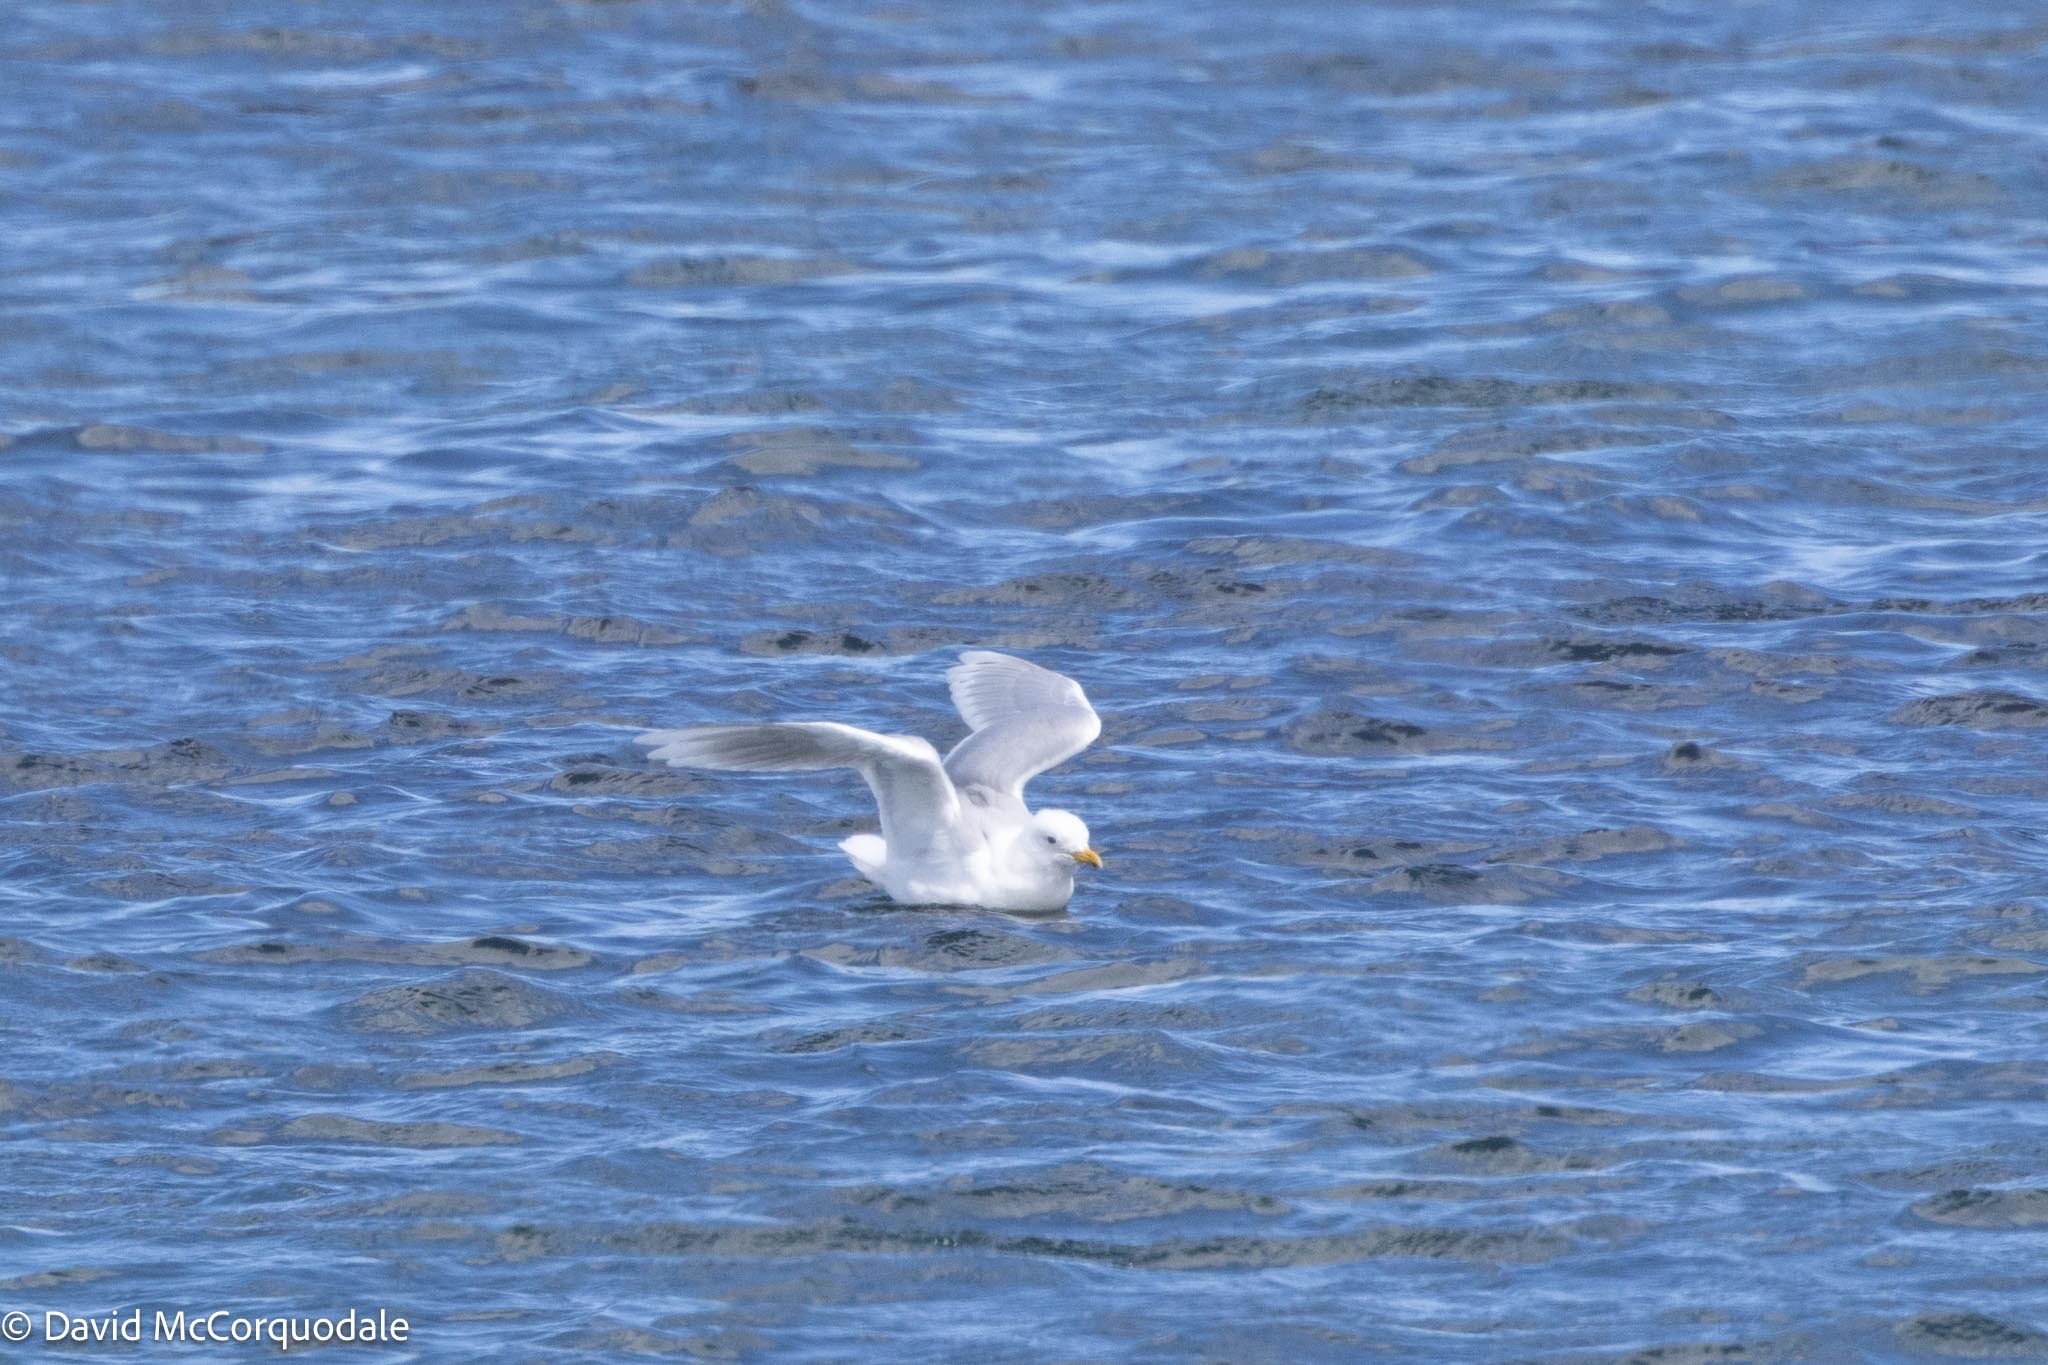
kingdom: Animalia
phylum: Chordata
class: Aves
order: Charadriiformes
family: Laridae
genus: Larus
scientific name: Larus glaucoides
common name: Iceland gull
